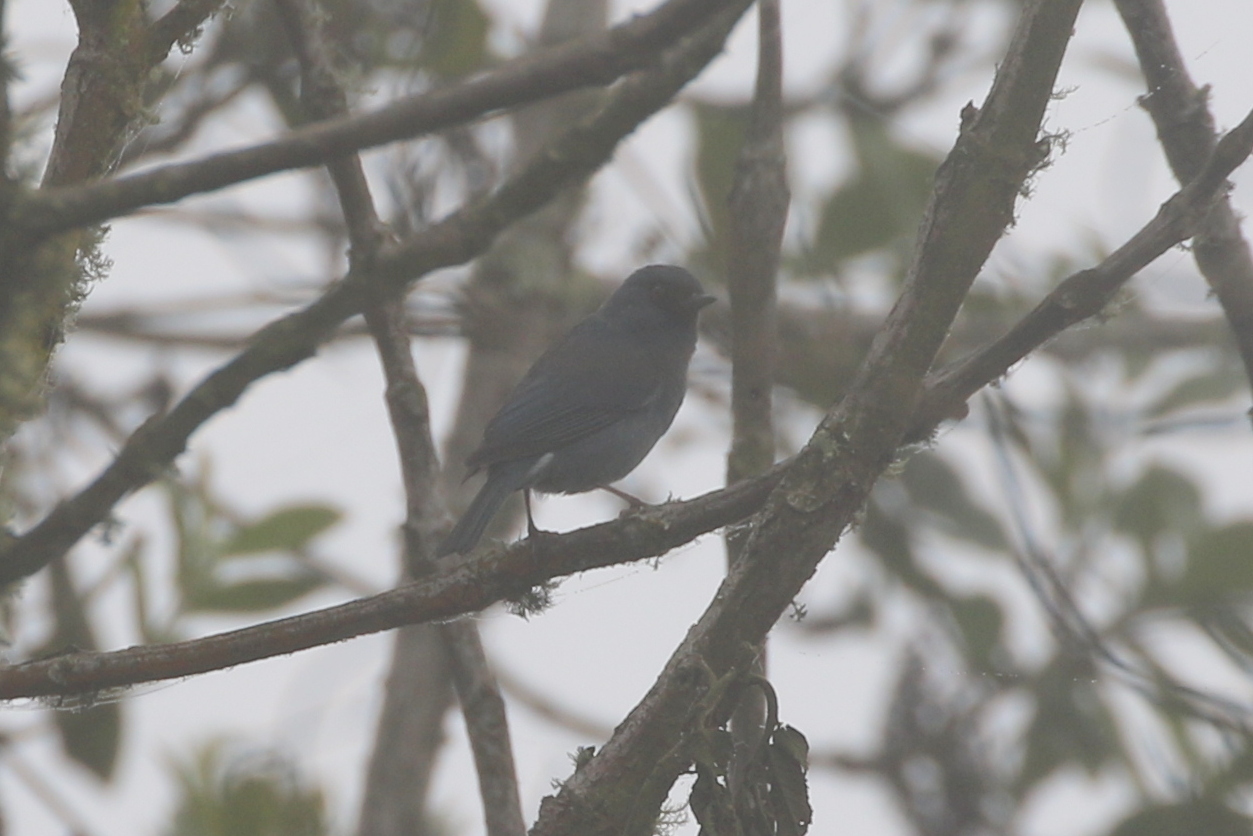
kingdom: Animalia
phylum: Chordata
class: Aves
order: Passeriformes
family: Thraupidae
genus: Diglossa
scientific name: Diglossa caerulescens
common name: Bluish flowerpiercer
